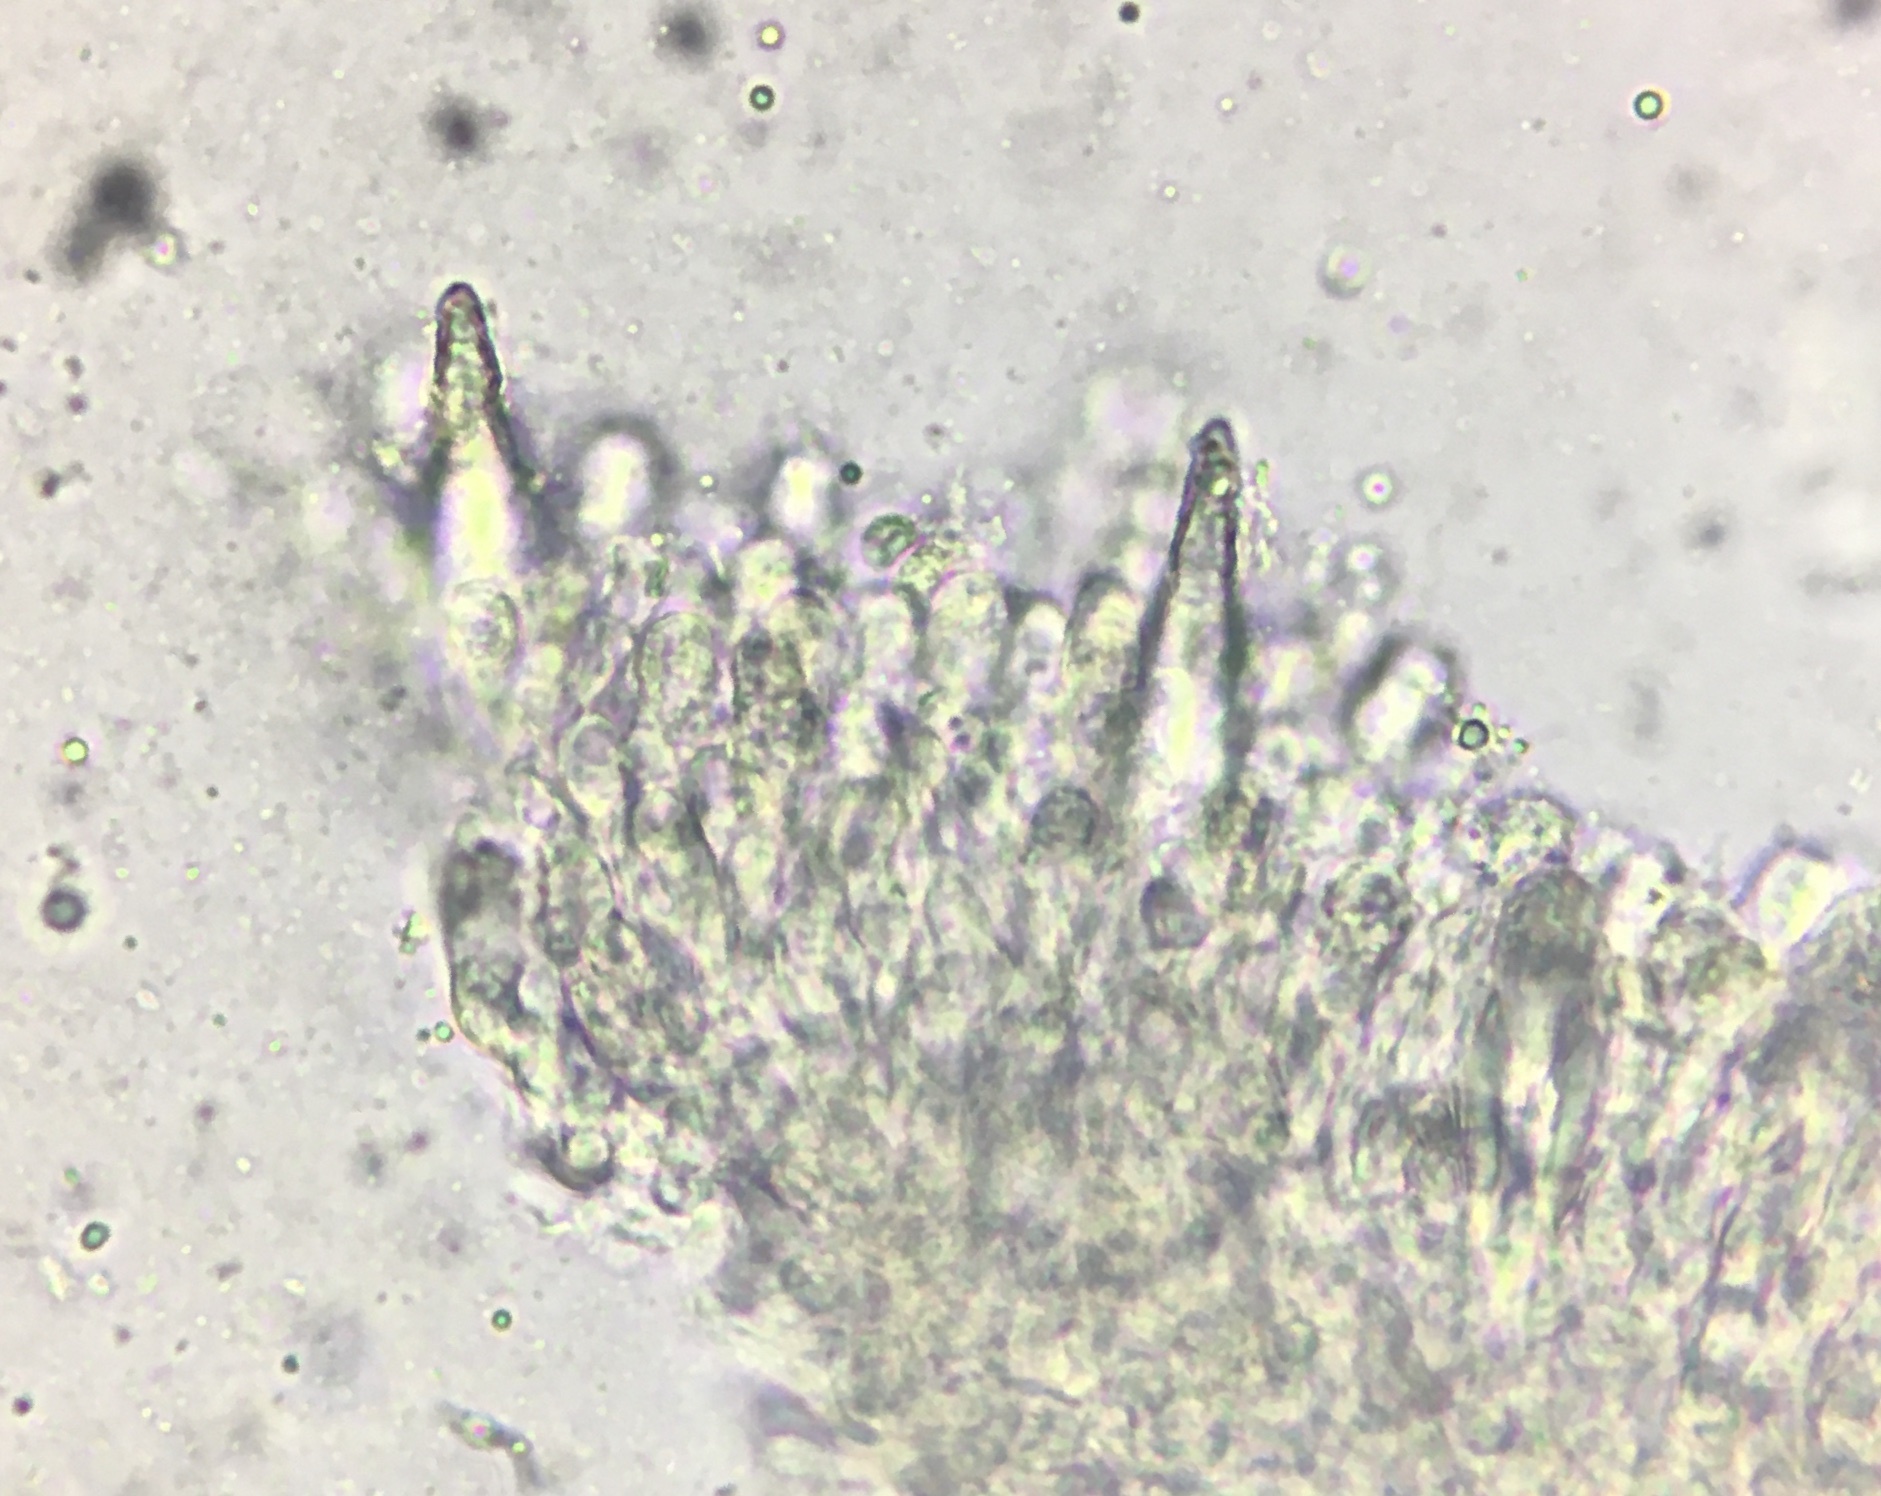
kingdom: Fungi
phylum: Basidiomycota
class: Agaricomycetes
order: Agaricales
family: Pleurotaceae
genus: Hohenbuehelia
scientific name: Hohenbuehelia mastrucata
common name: Woolly oyster
